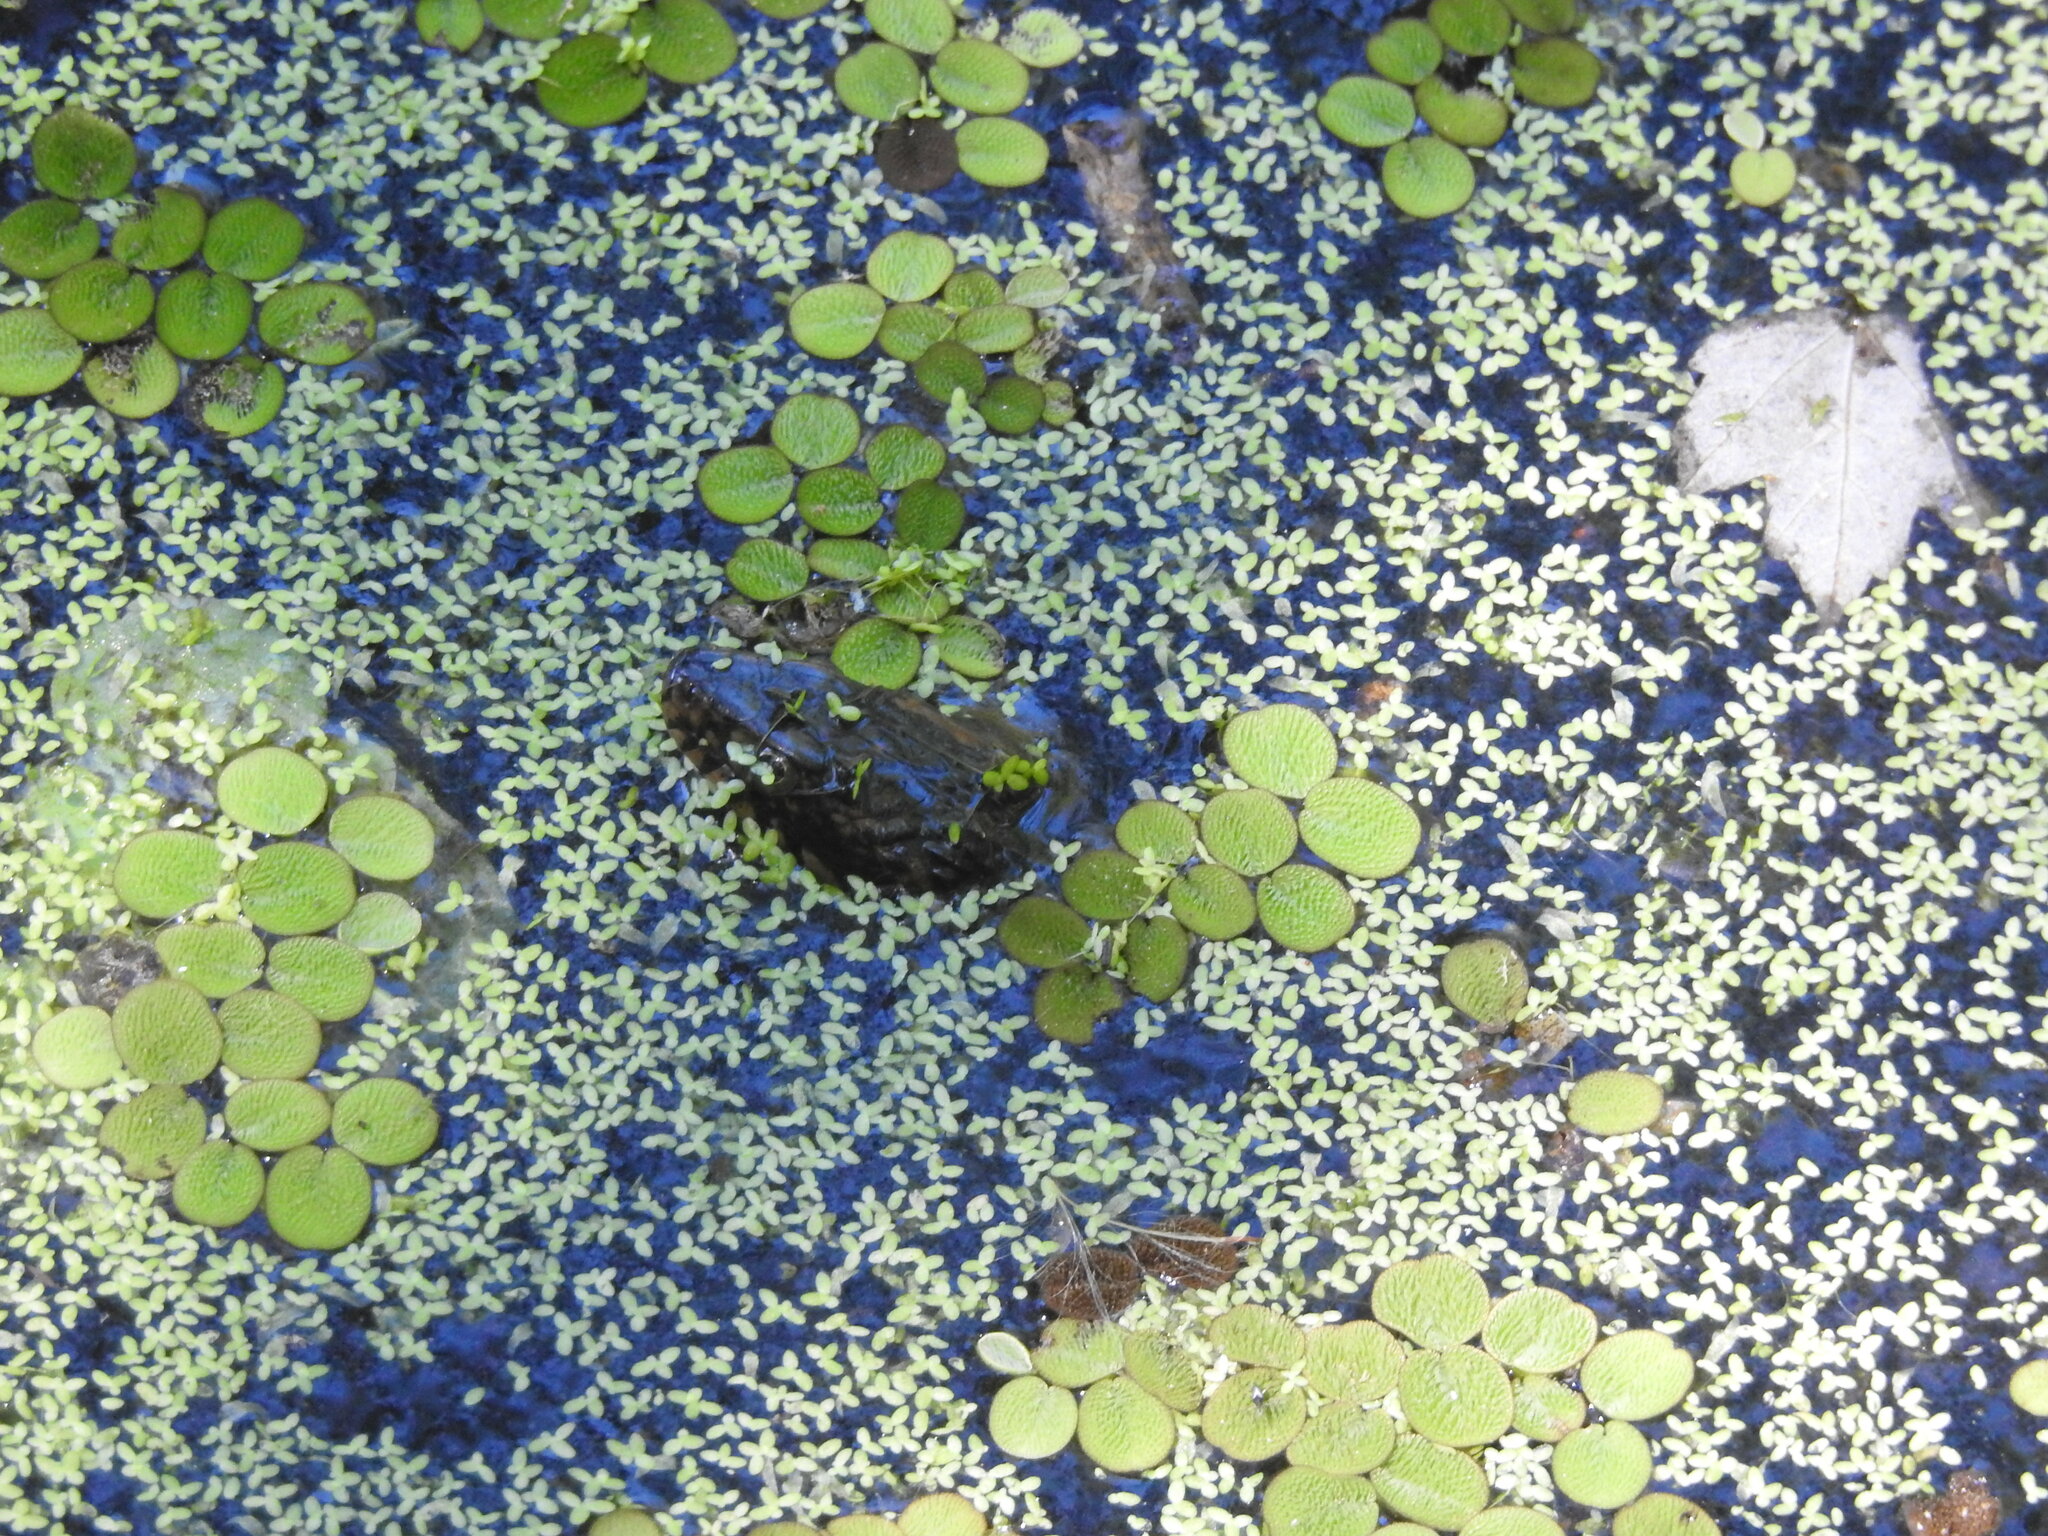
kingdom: Animalia
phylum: Chordata
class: Squamata
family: Colubridae
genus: Nerodia
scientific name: Nerodia fasciata
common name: Southern water snake
